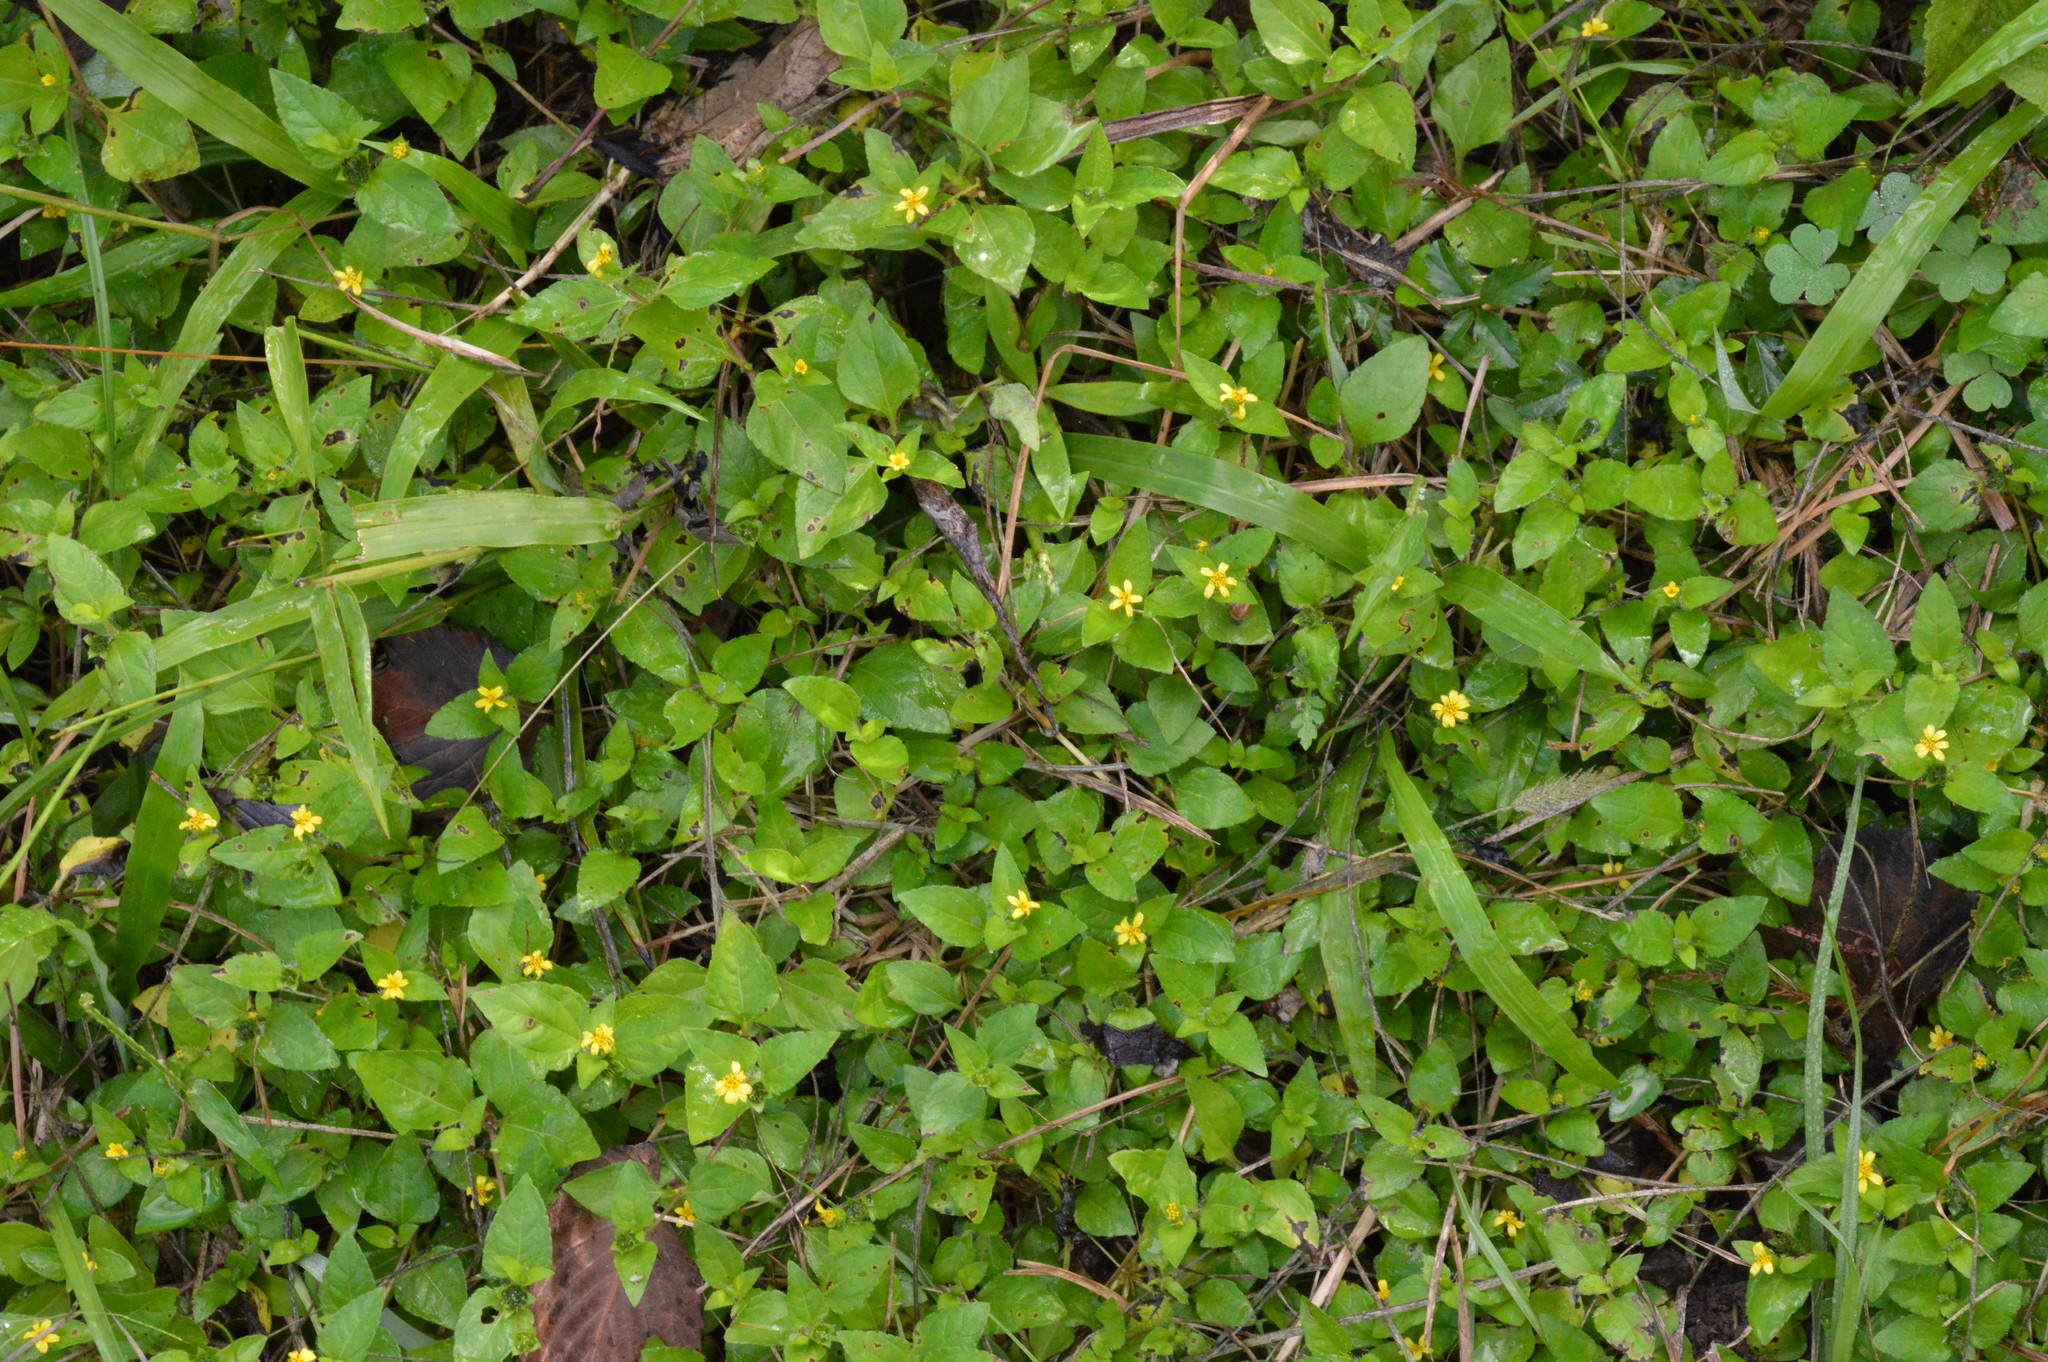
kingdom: Plantae
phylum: Tracheophyta
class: Magnoliopsida
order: Asterales
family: Asteraceae
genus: Calyptocarpus
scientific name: Calyptocarpus vialis
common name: Straggler daisy
